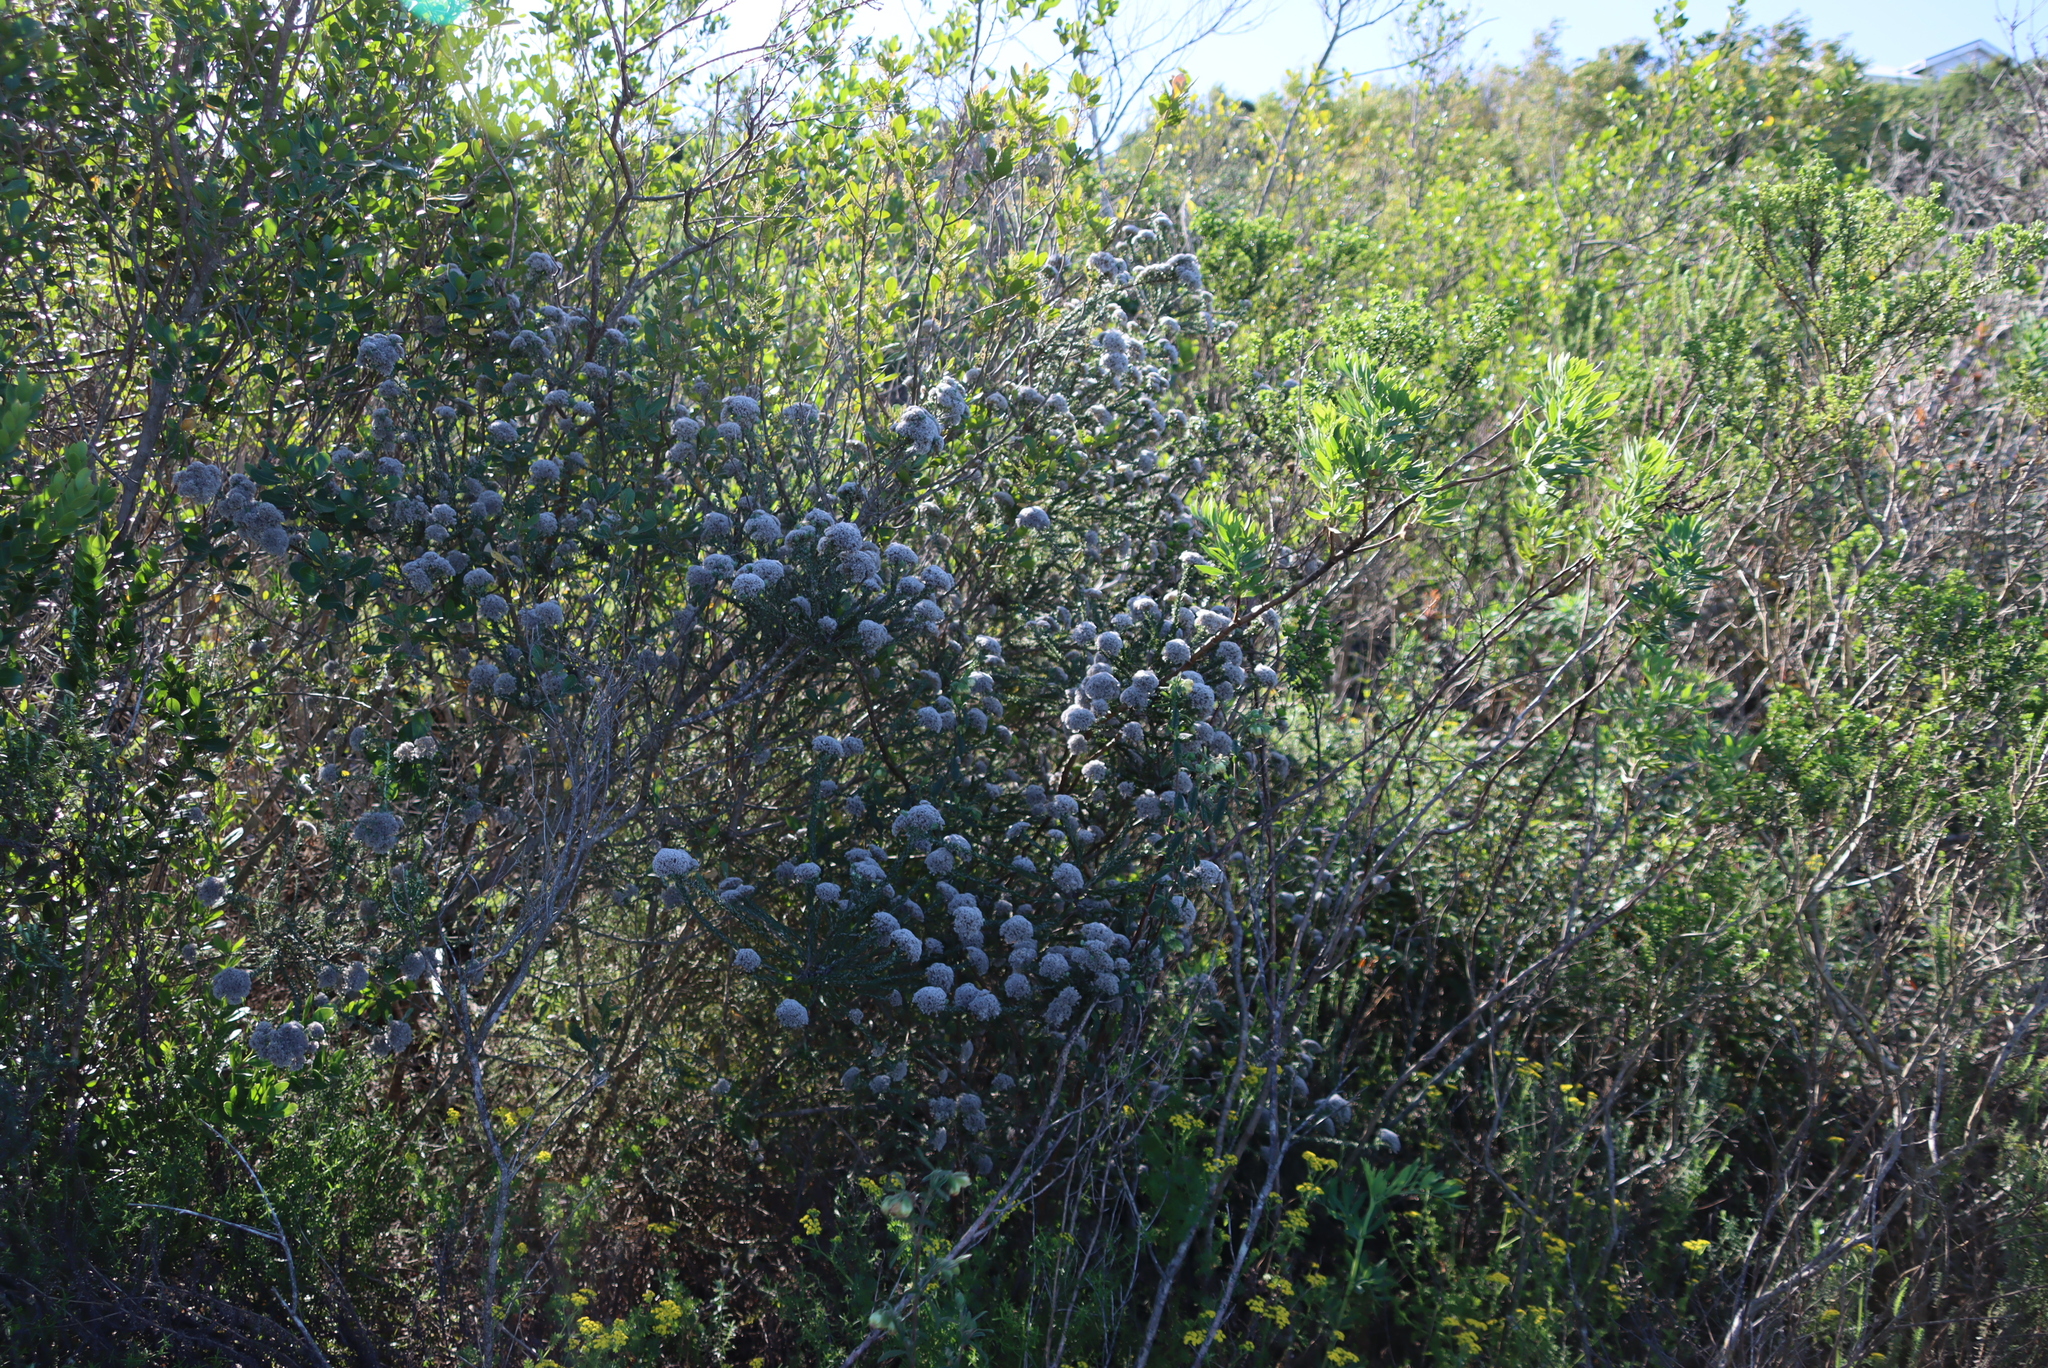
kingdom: Plantae
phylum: Tracheophyta
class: Magnoliopsida
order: Asterales
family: Asteraceae
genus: Metalasia
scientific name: Metalasia pungens
